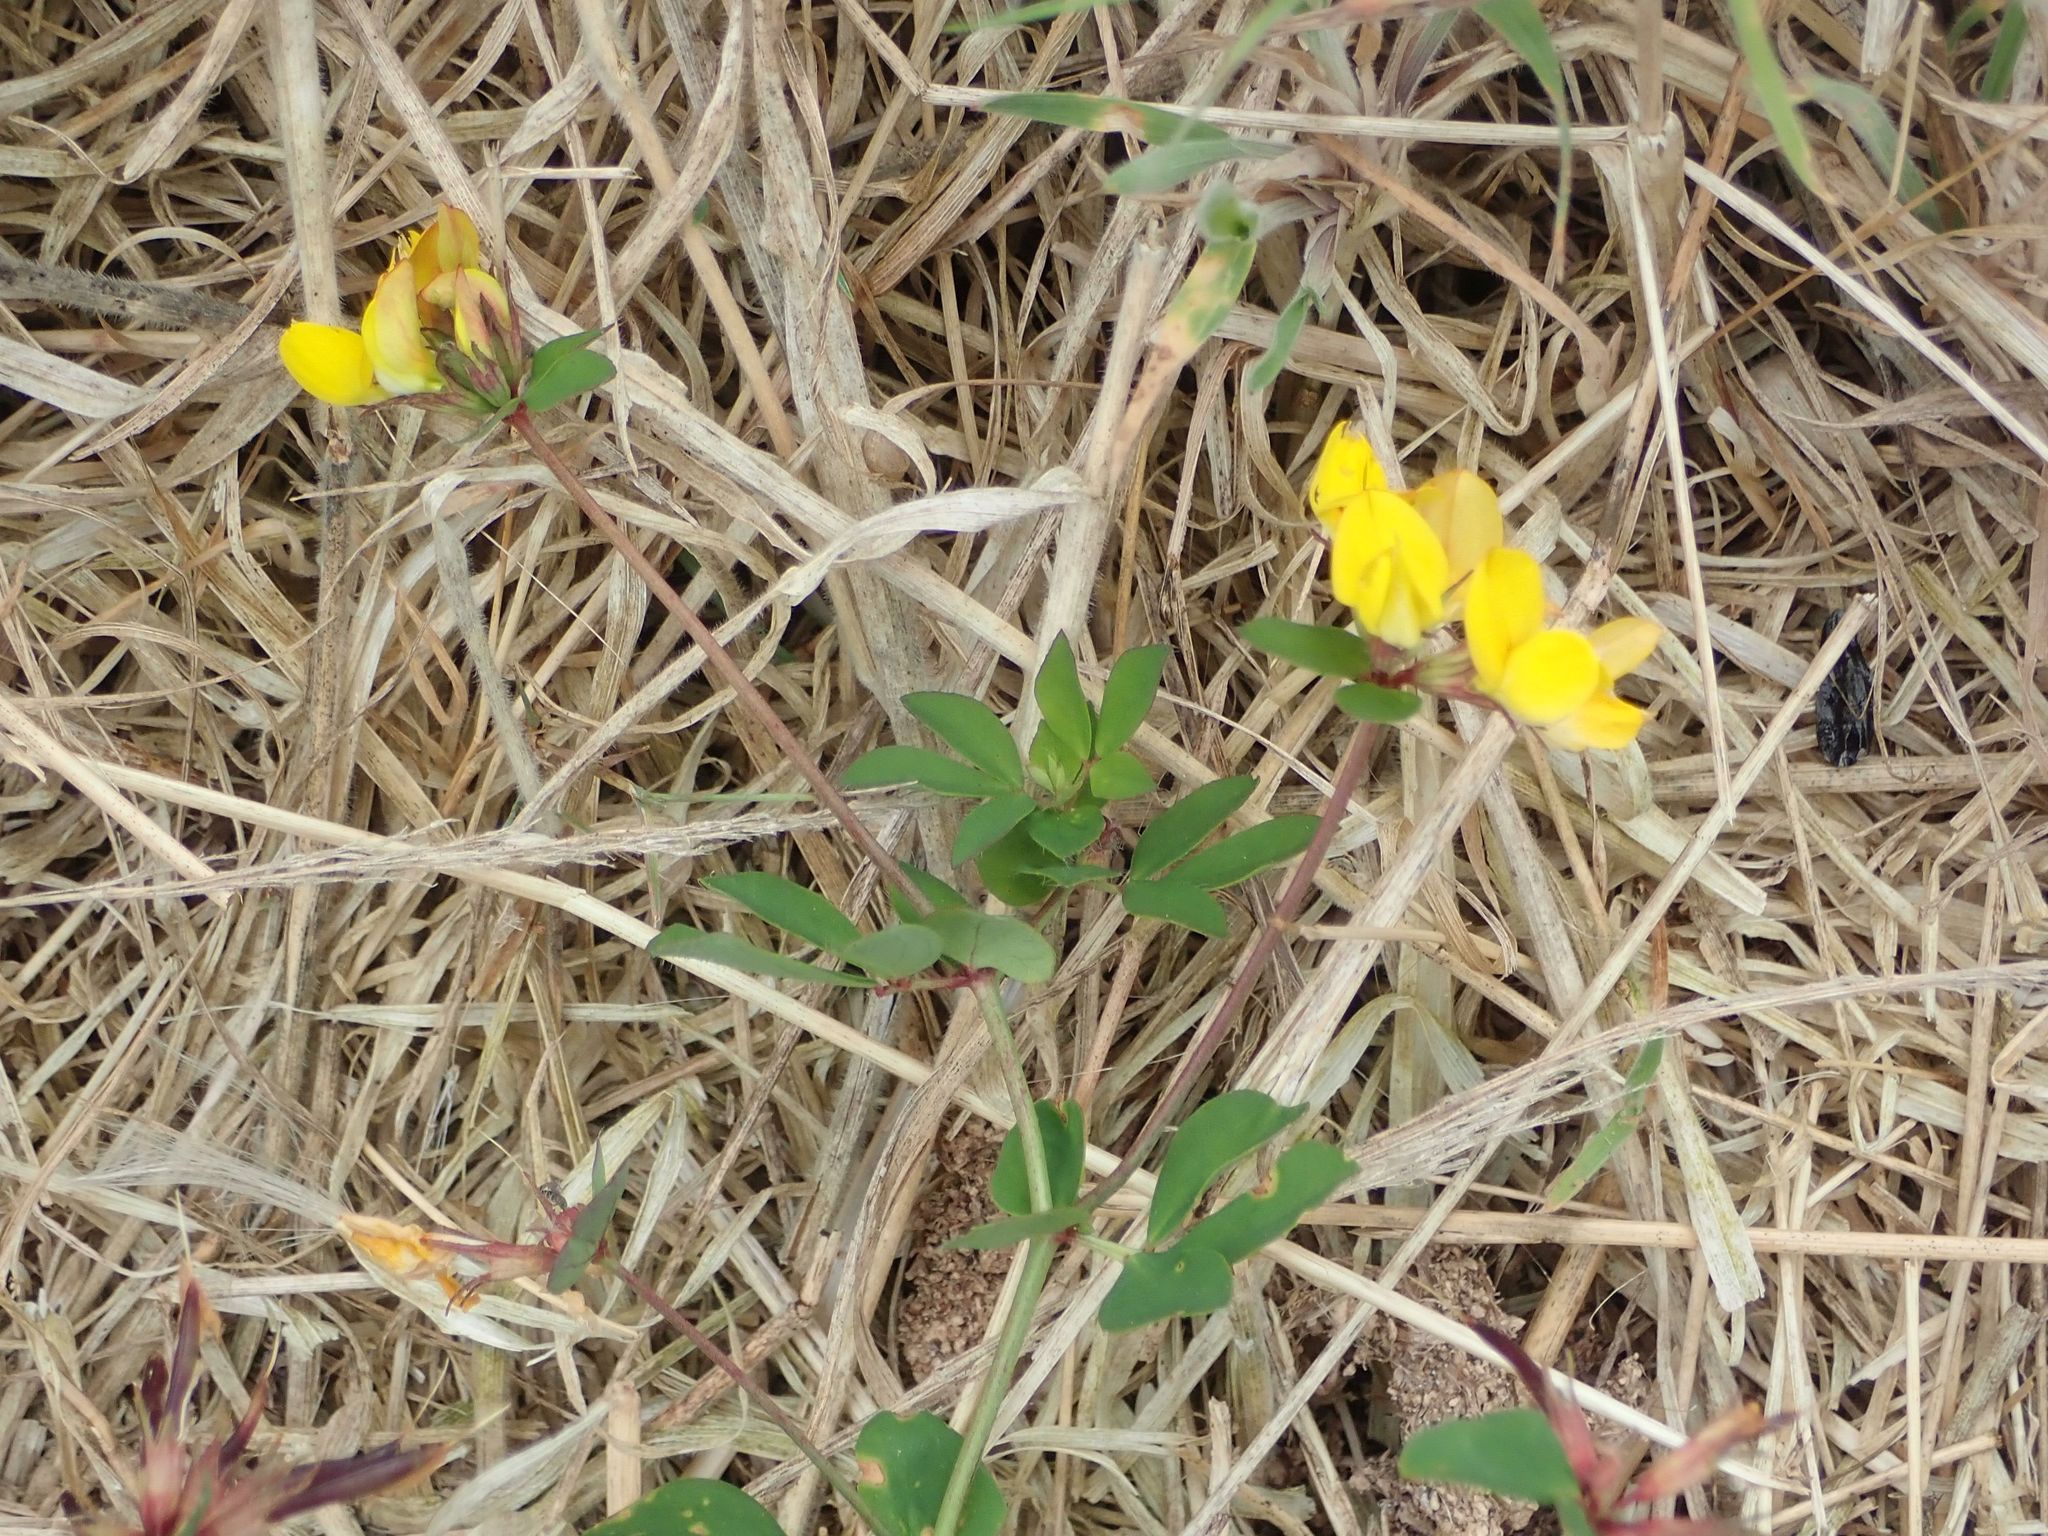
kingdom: Plantae
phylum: Tracheophyta
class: Magnoliopsida
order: Fabales
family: Fabaceae
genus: Lotus
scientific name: Lotus pedunculatus
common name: Greater birdsfoot-trefoil
